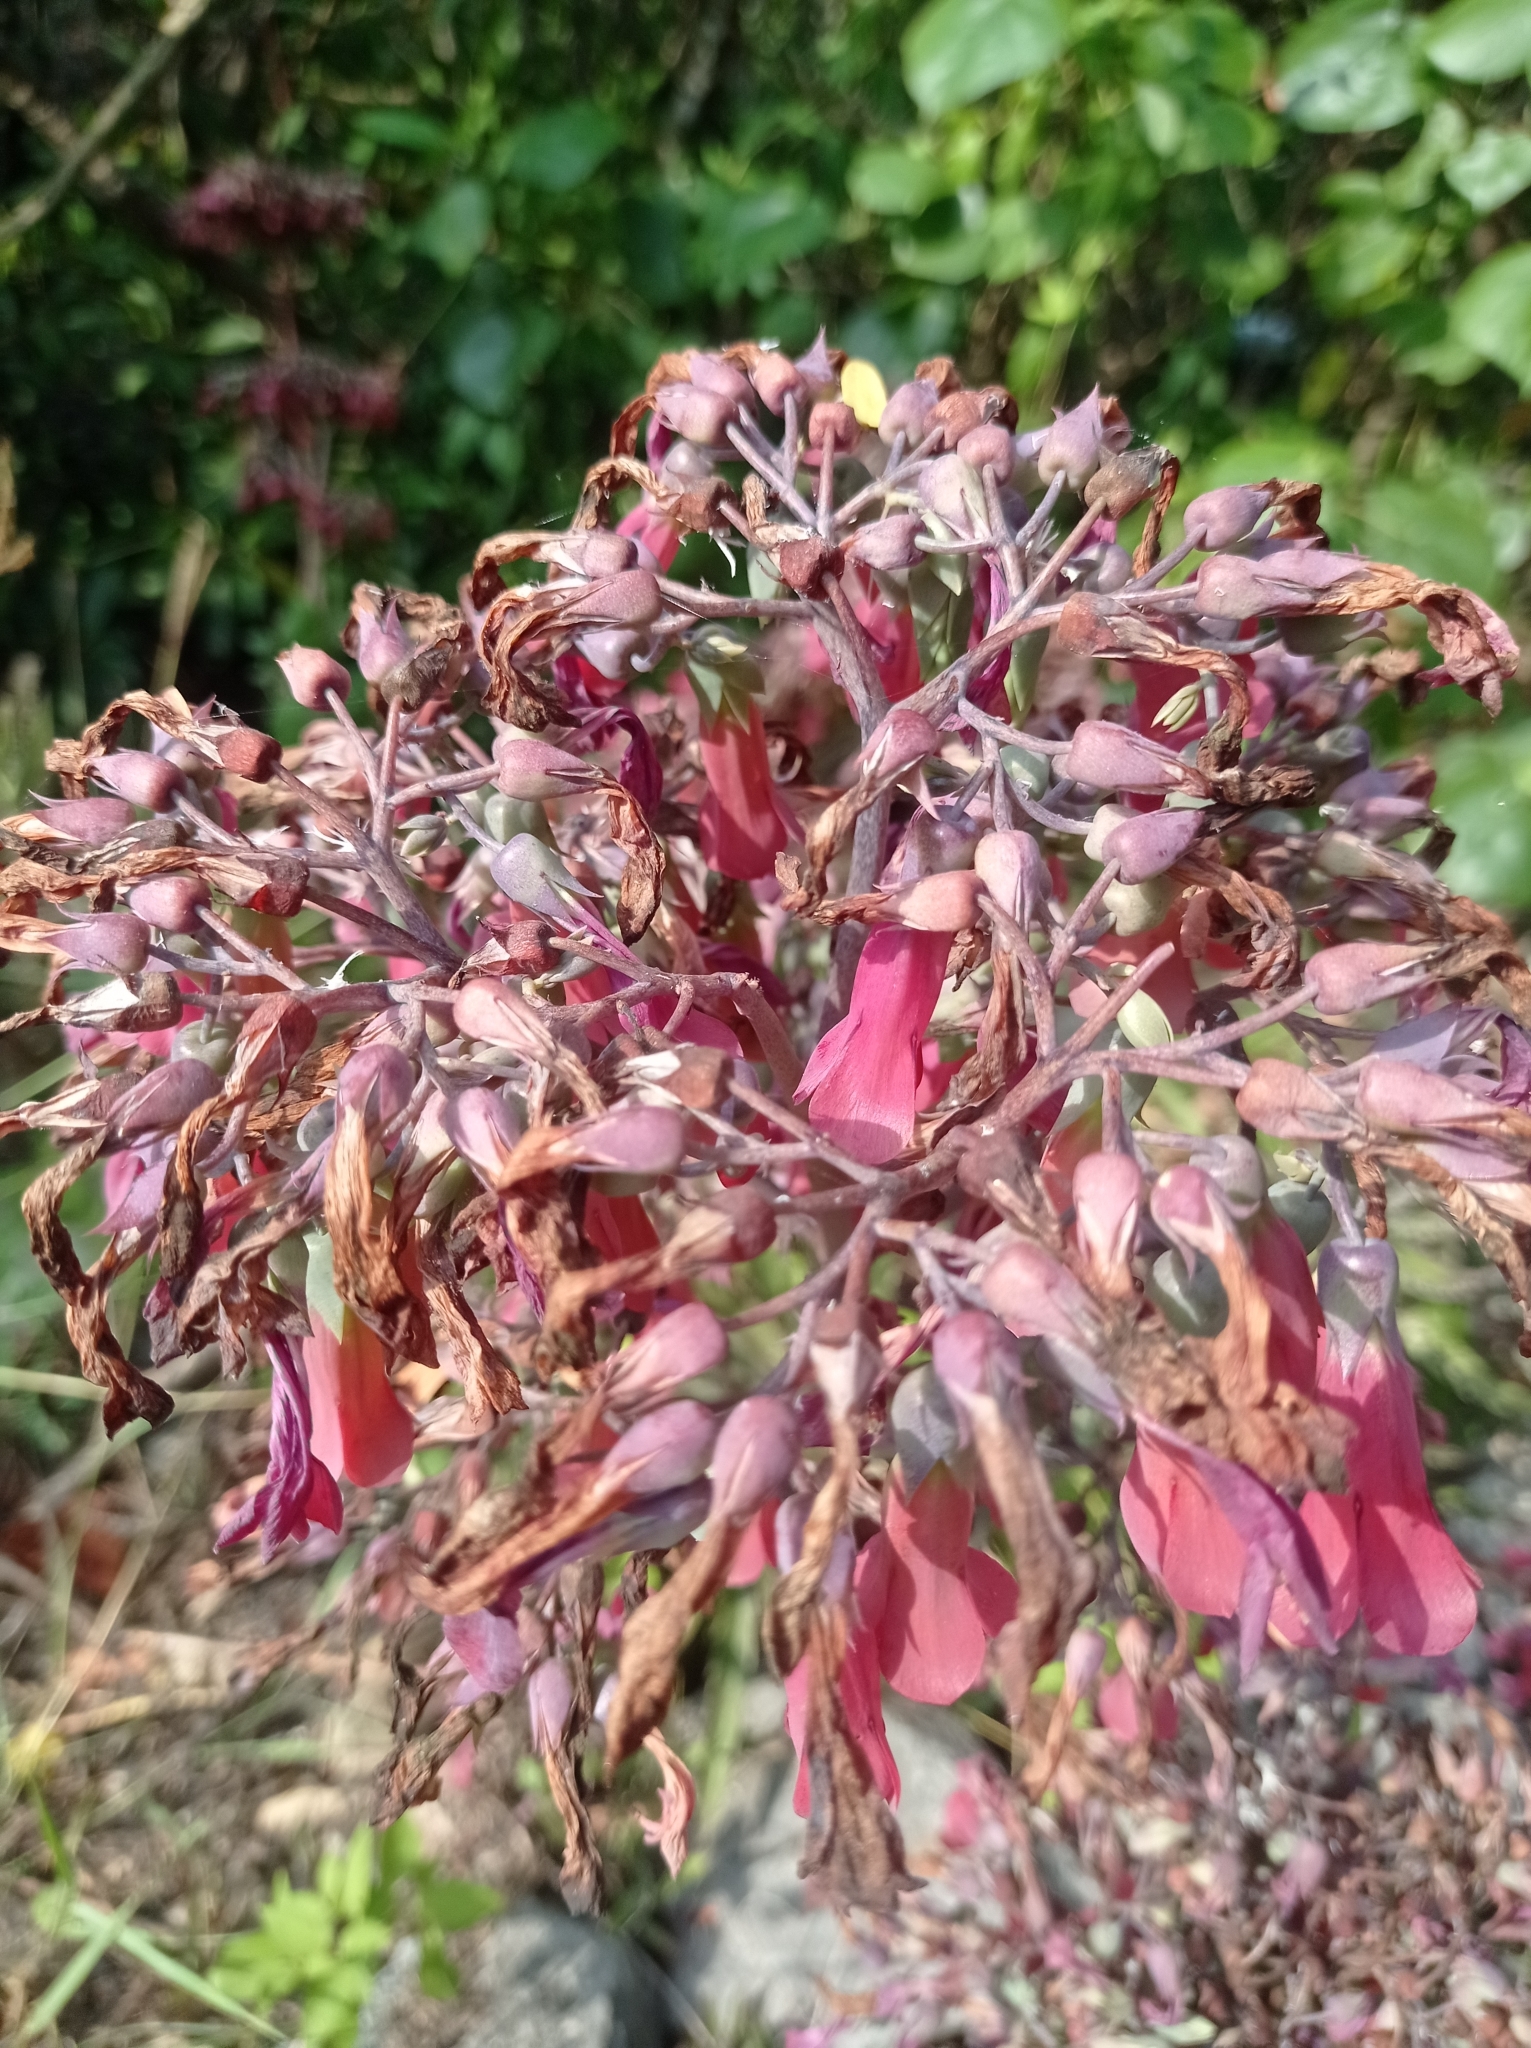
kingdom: Plantae
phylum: Tracheophyta
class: Magnoliopsida
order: Saxifragales
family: Crassulaceae
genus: Kalanchoe
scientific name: Kalanchoe houghtonii
